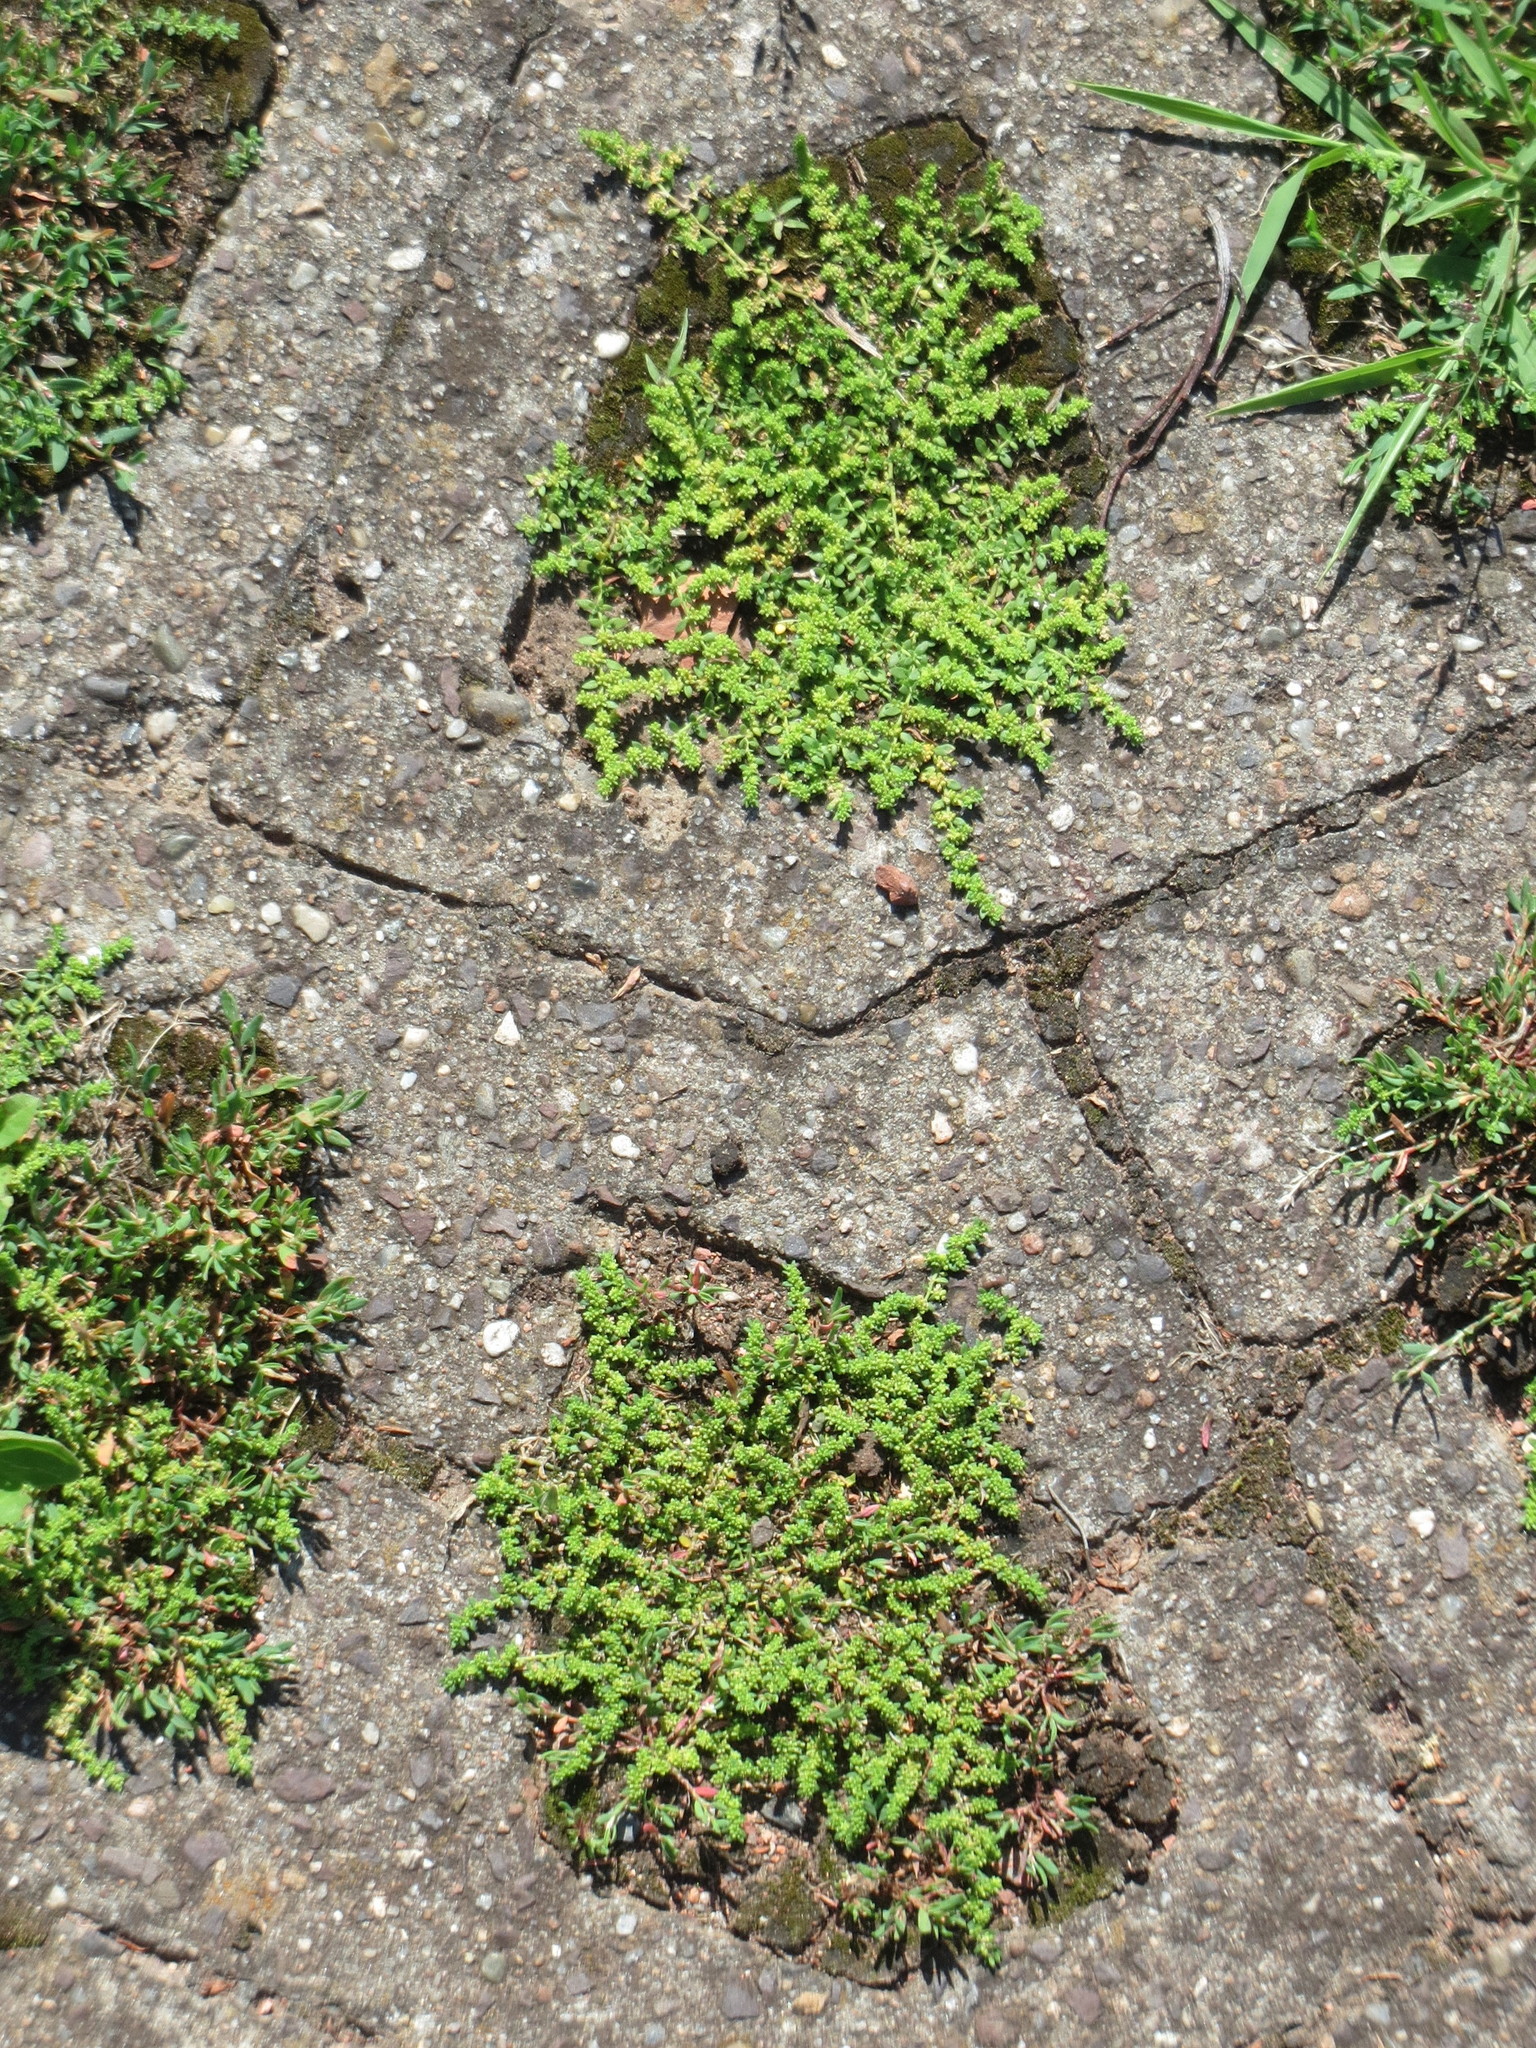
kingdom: Plantae
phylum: Tracheophyta
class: Magnoliopsida
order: Caryophyllales
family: Caryophyllaceae
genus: Herniaria
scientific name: Herniaria glabra
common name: Smooth rupturewort
